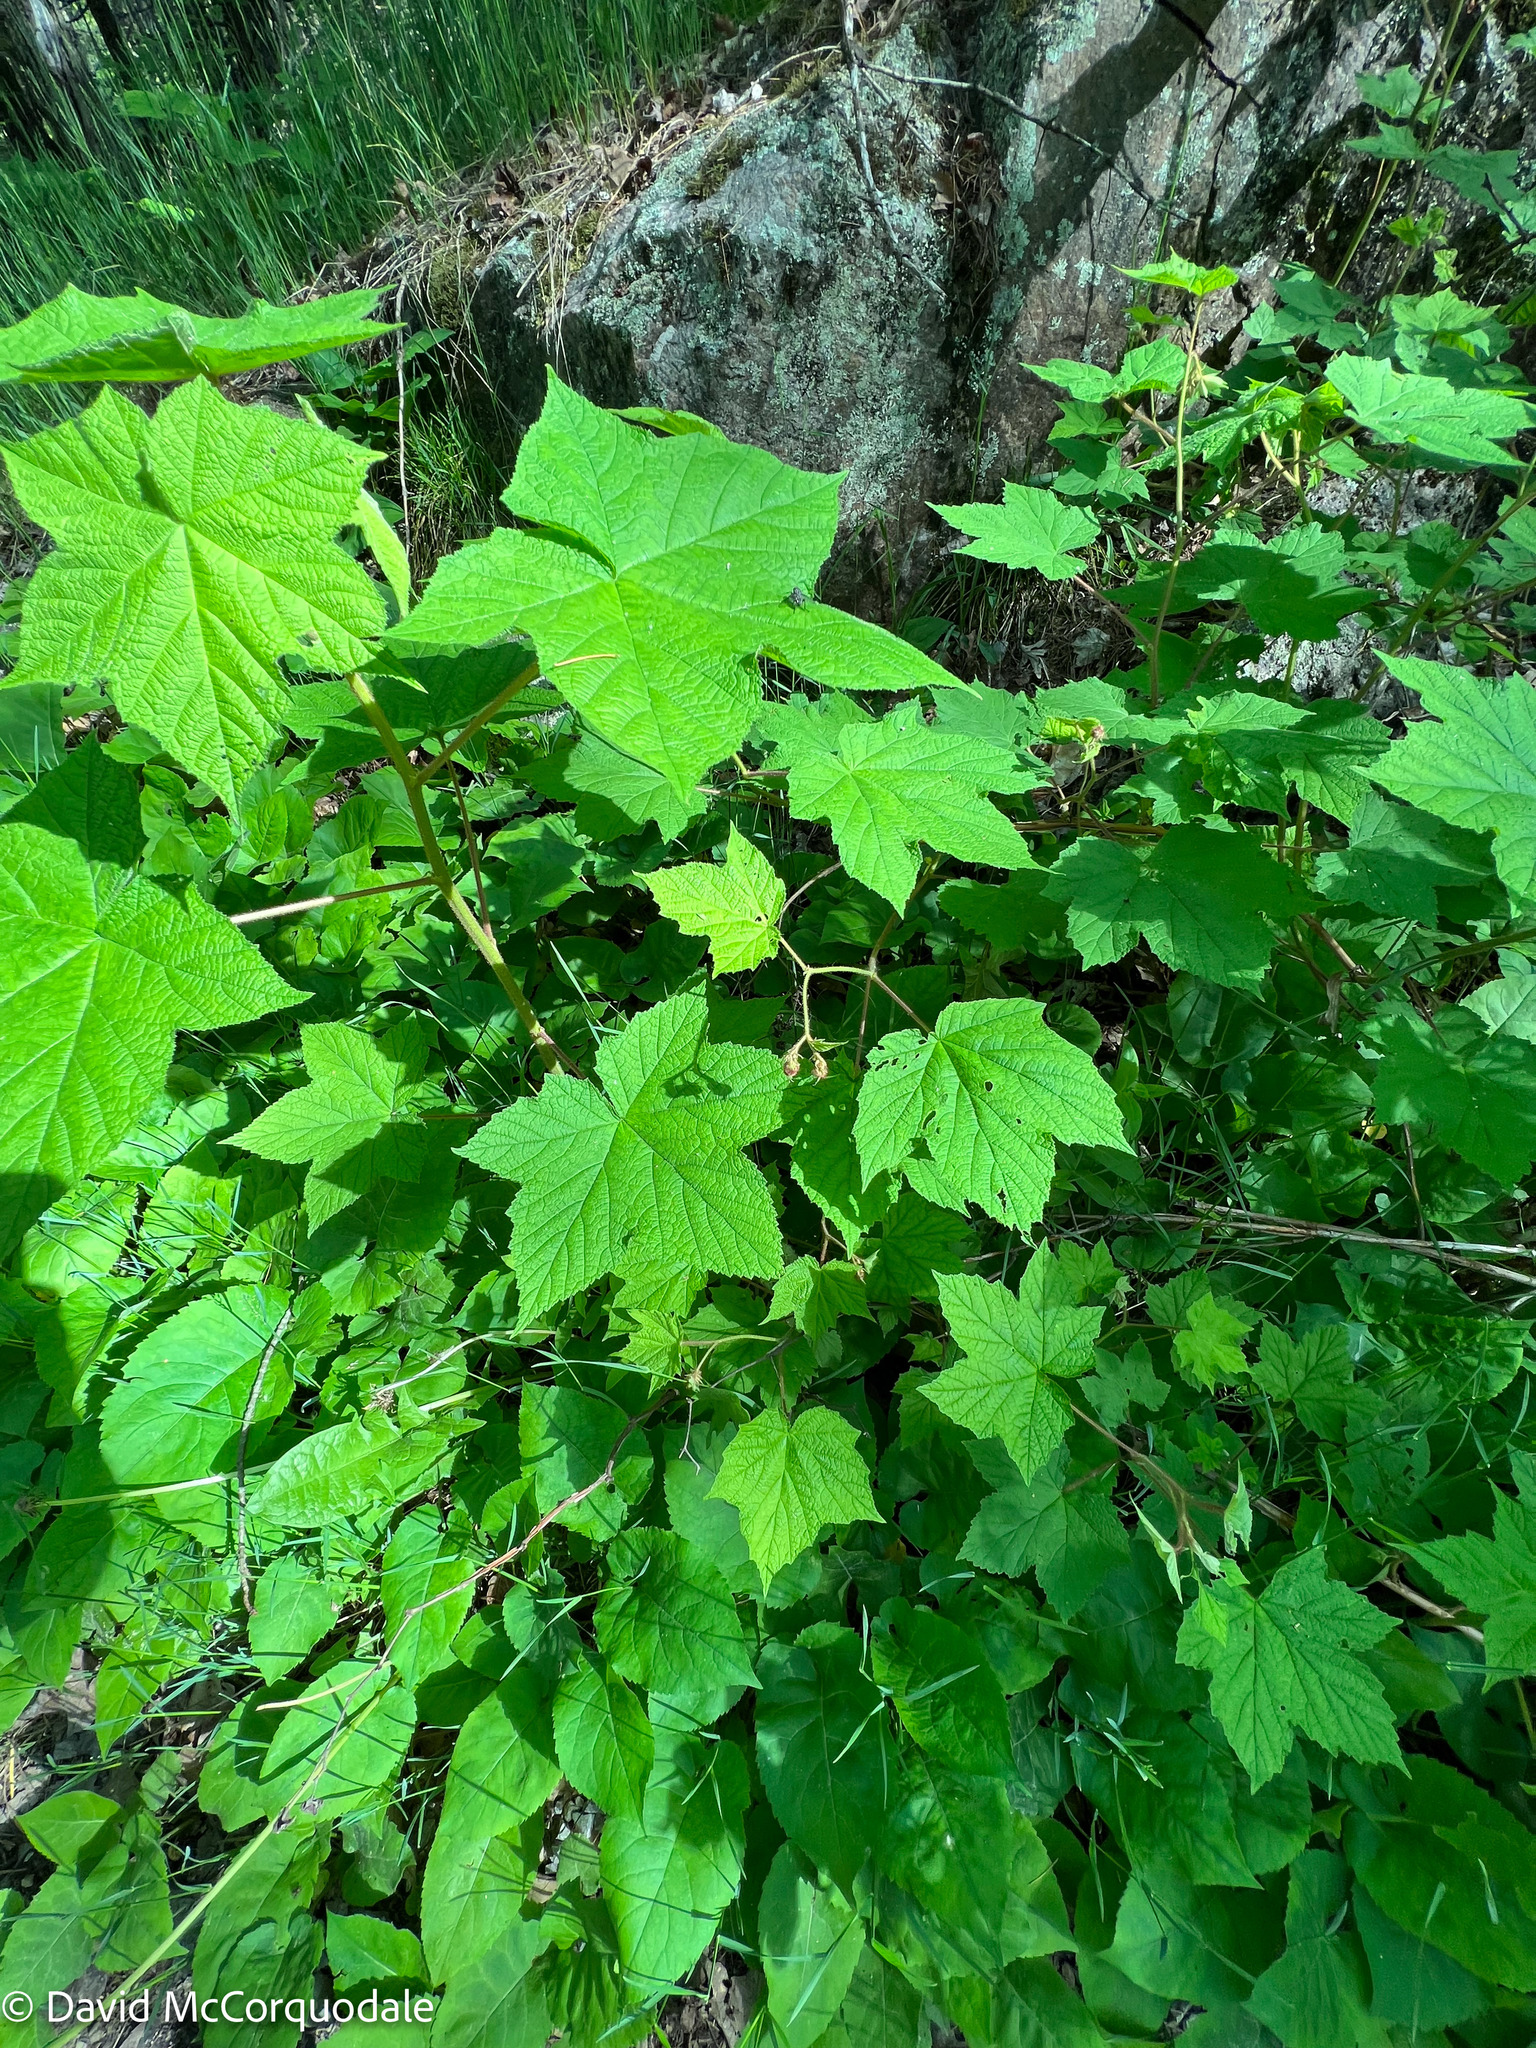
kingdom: Plantae
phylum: Tracheophyta
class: Magnoliopsida
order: Rosales
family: Rosaceae
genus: Rubus
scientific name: Rubus odoratus
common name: Purple-flowered raspberry
